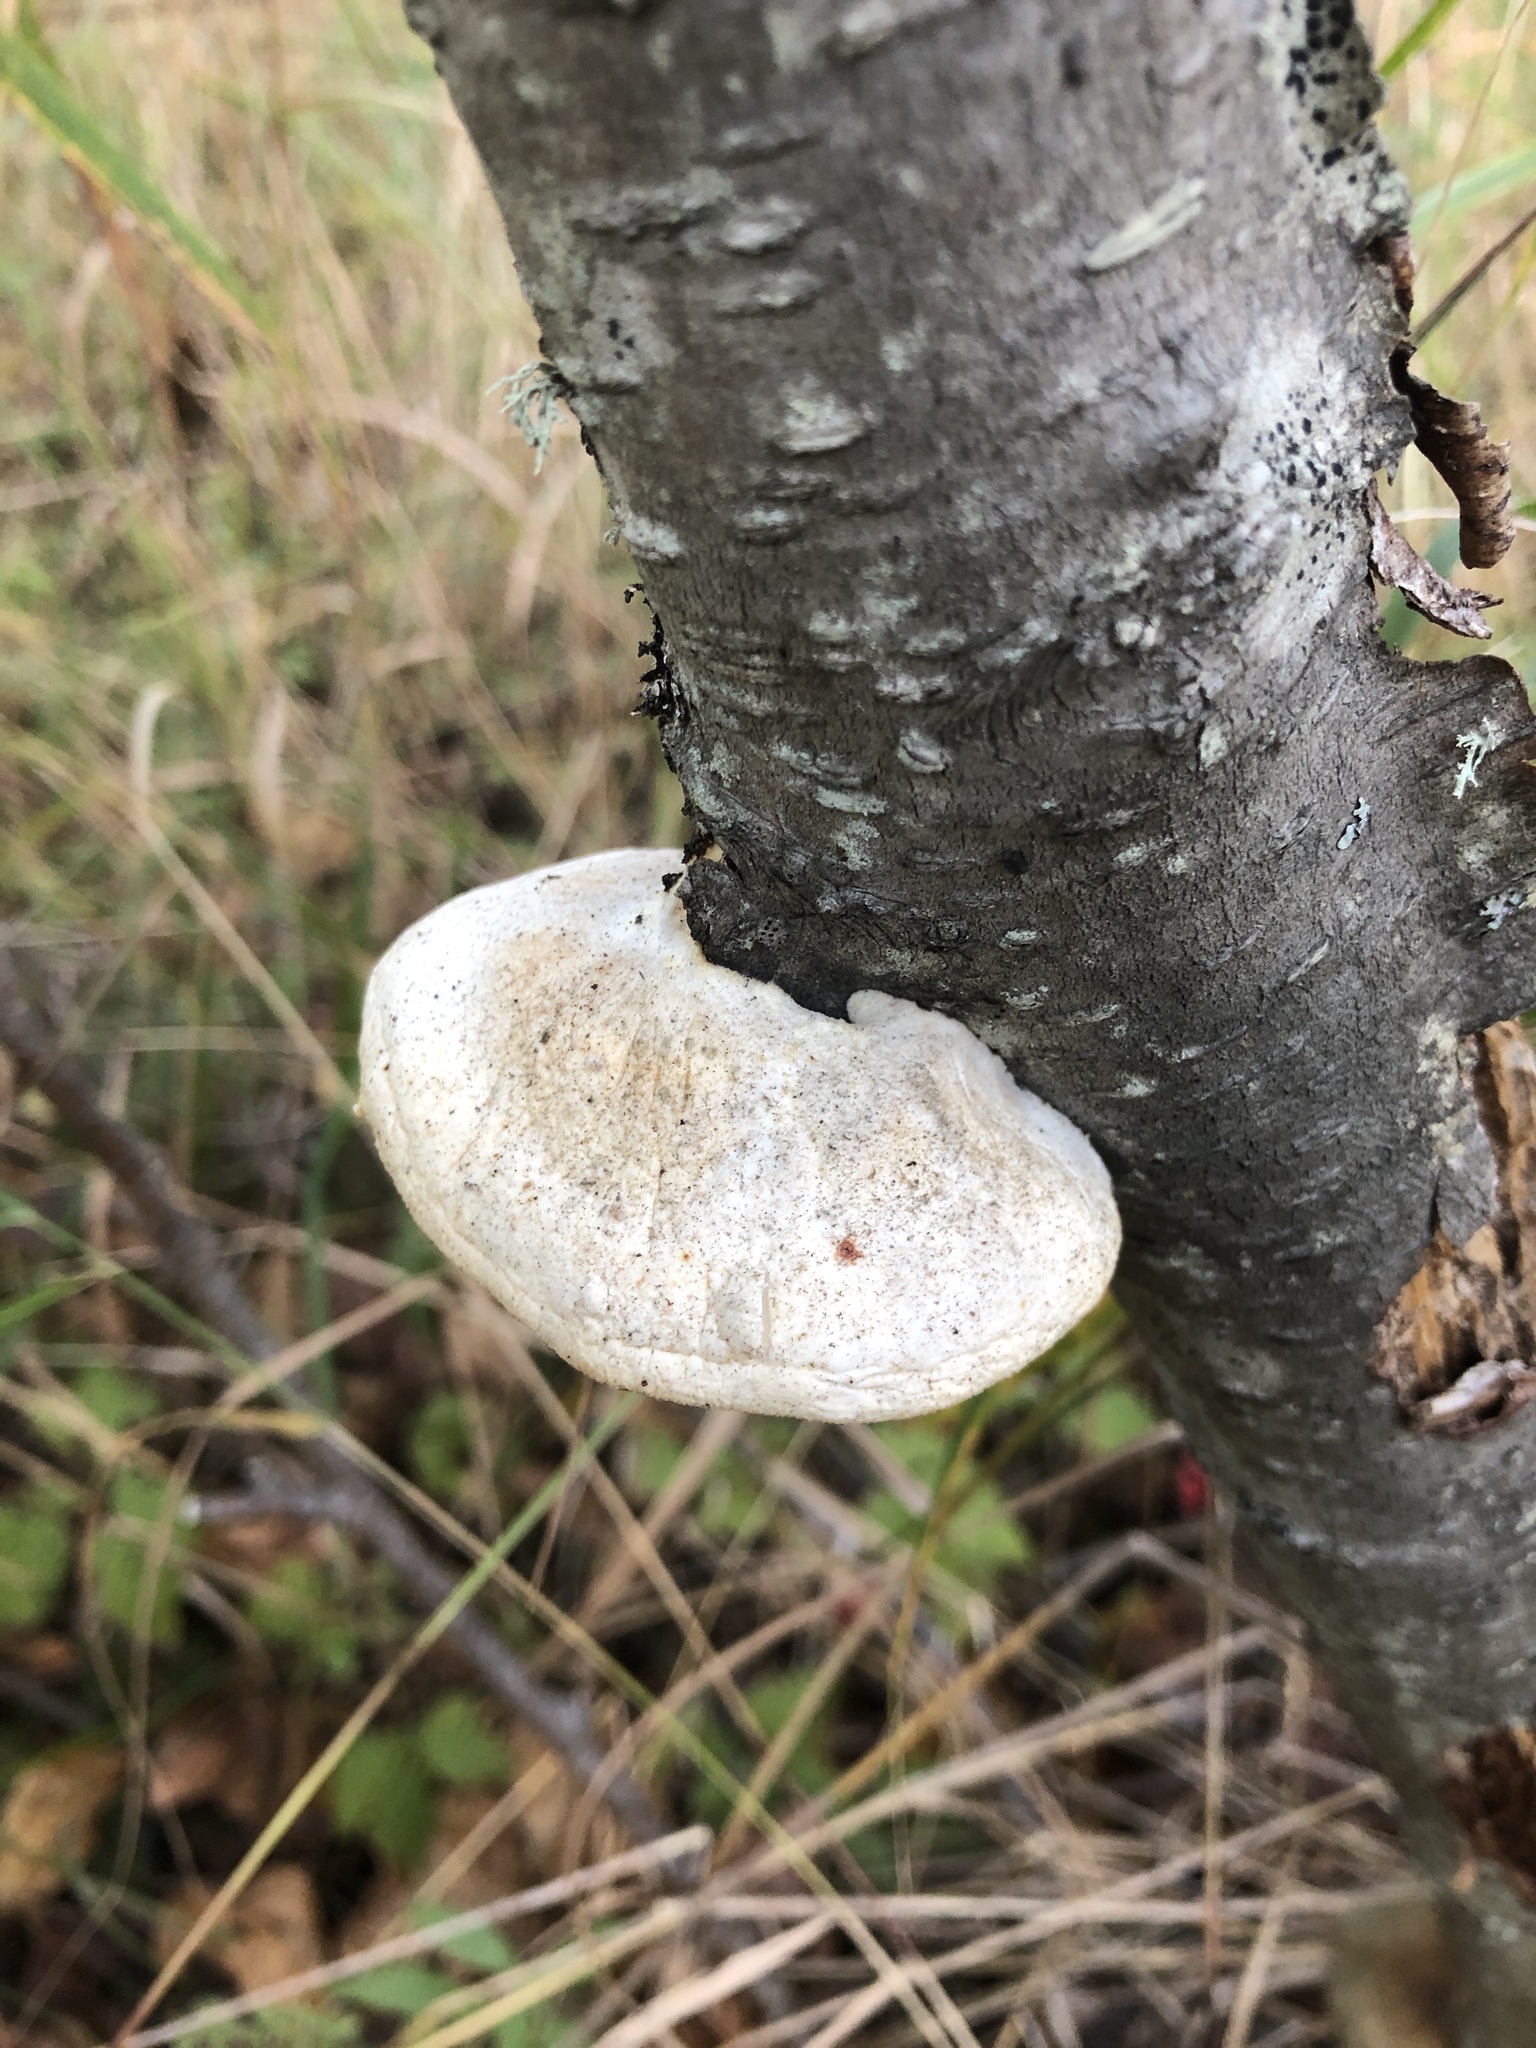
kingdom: Fungi
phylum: Basidiomycota
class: Agaricomycetes
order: Polyporales
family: Fomitopsidaceae
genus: Fomitopsis
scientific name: Fomitopsis betulina
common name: Birch polypore
